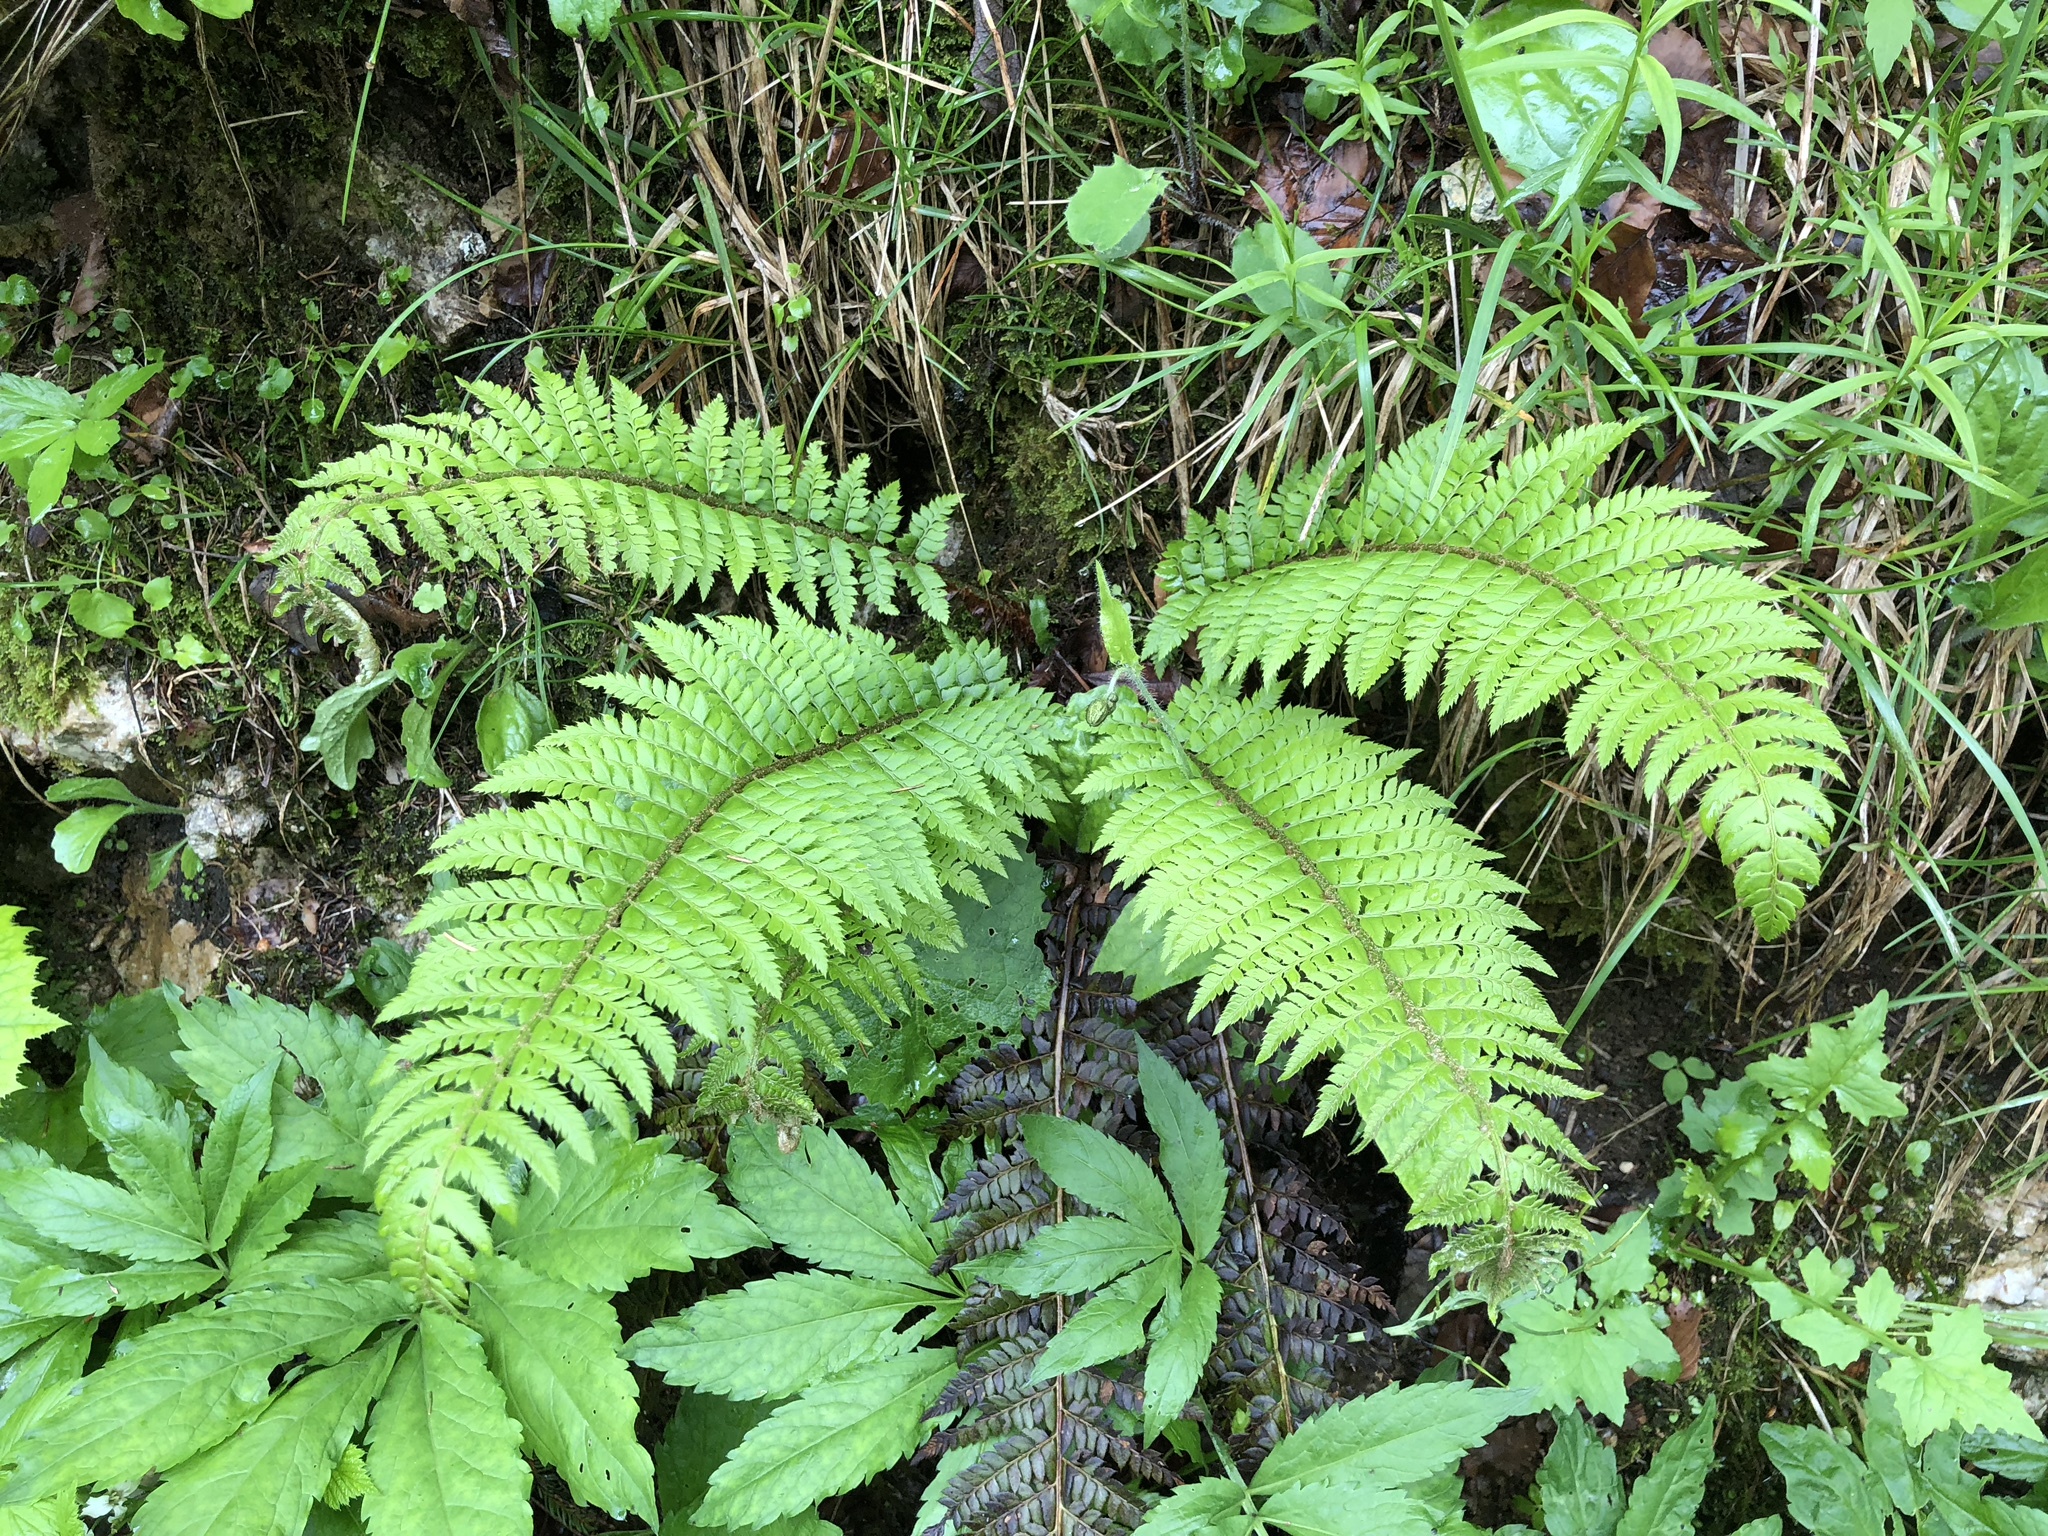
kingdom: Plantae
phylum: Tracheophyta
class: Polypodiopsida
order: Polypodiales
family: Dryopteridaceae
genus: Polystichum
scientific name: Polystichum aculeatum
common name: Hard shield-fern
